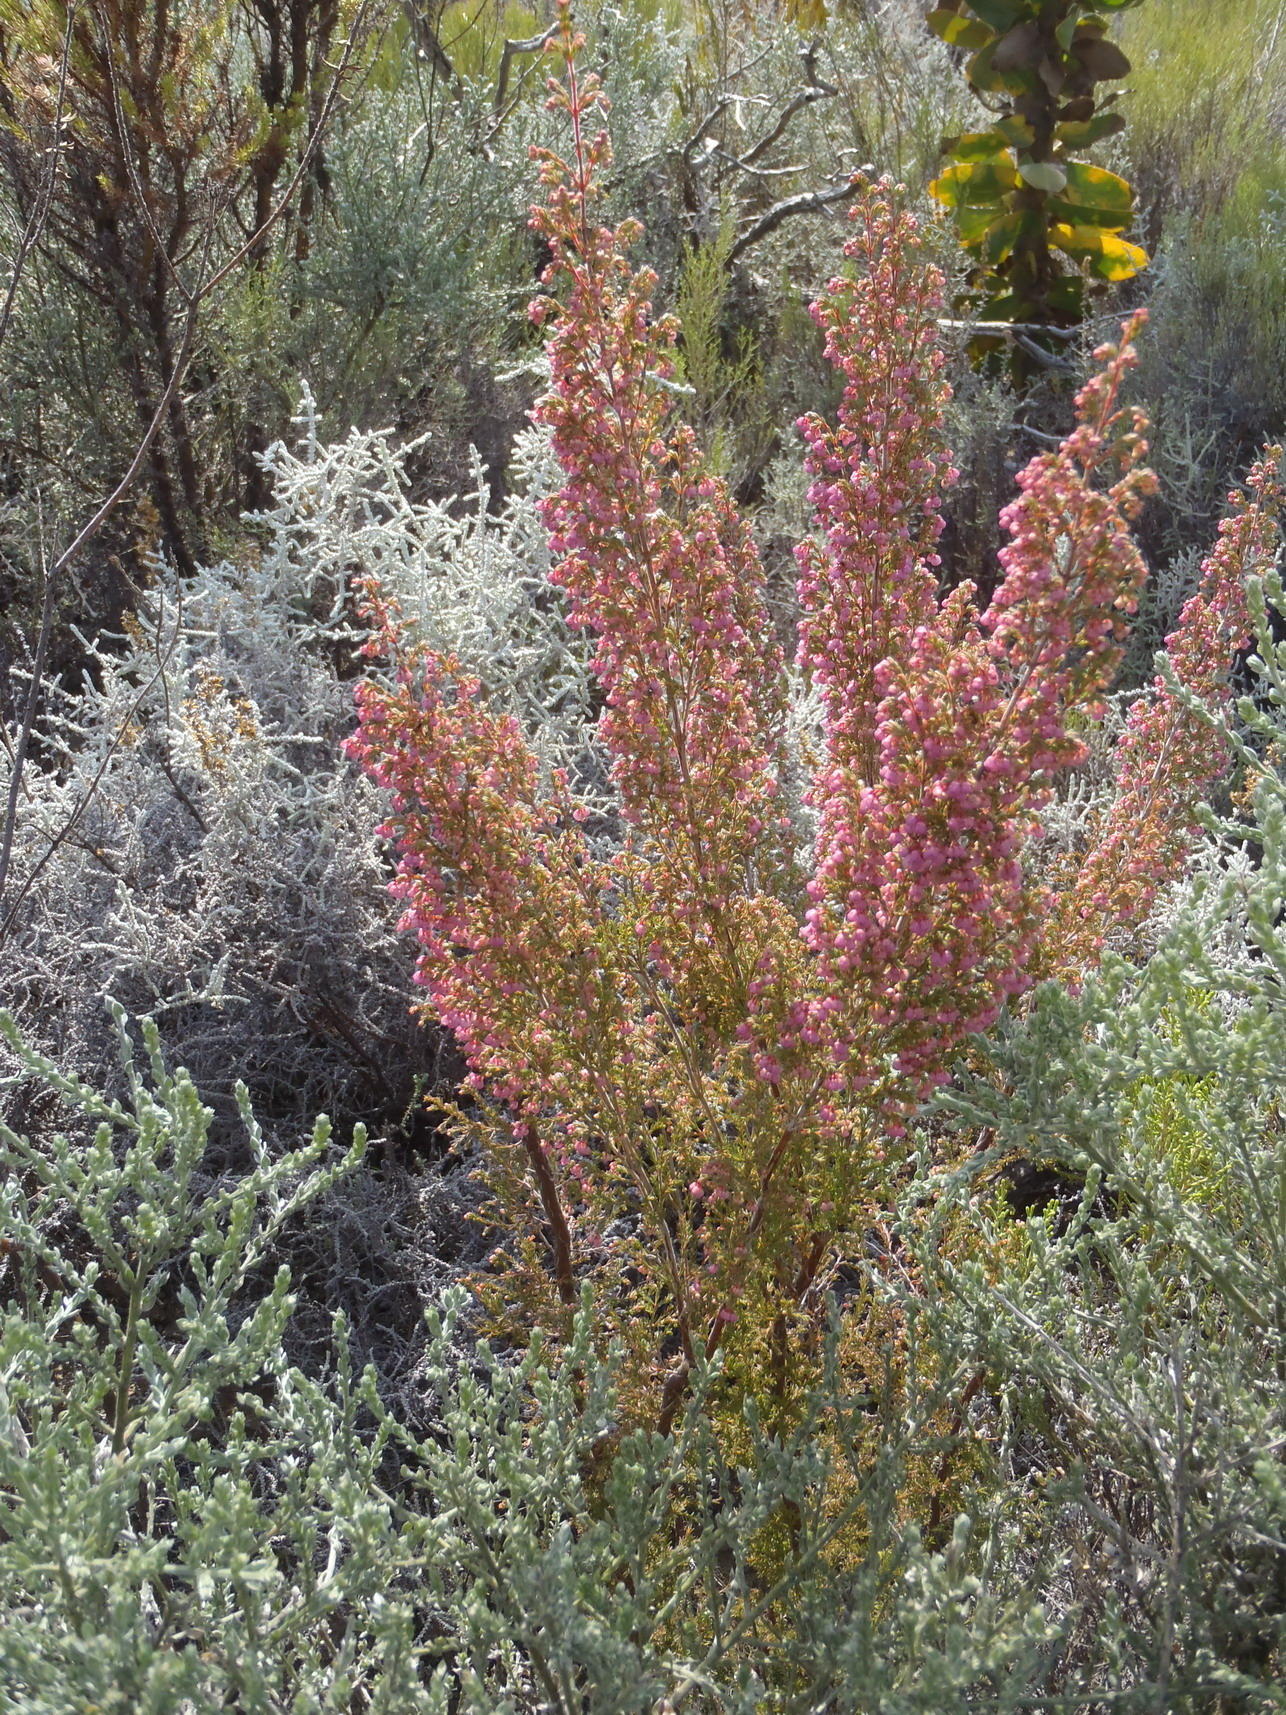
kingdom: Plantae
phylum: Tracheophyta
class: Magnoliopsida
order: Ericales
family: Ericaceae
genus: Erica
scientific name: Erica quadrangularis
